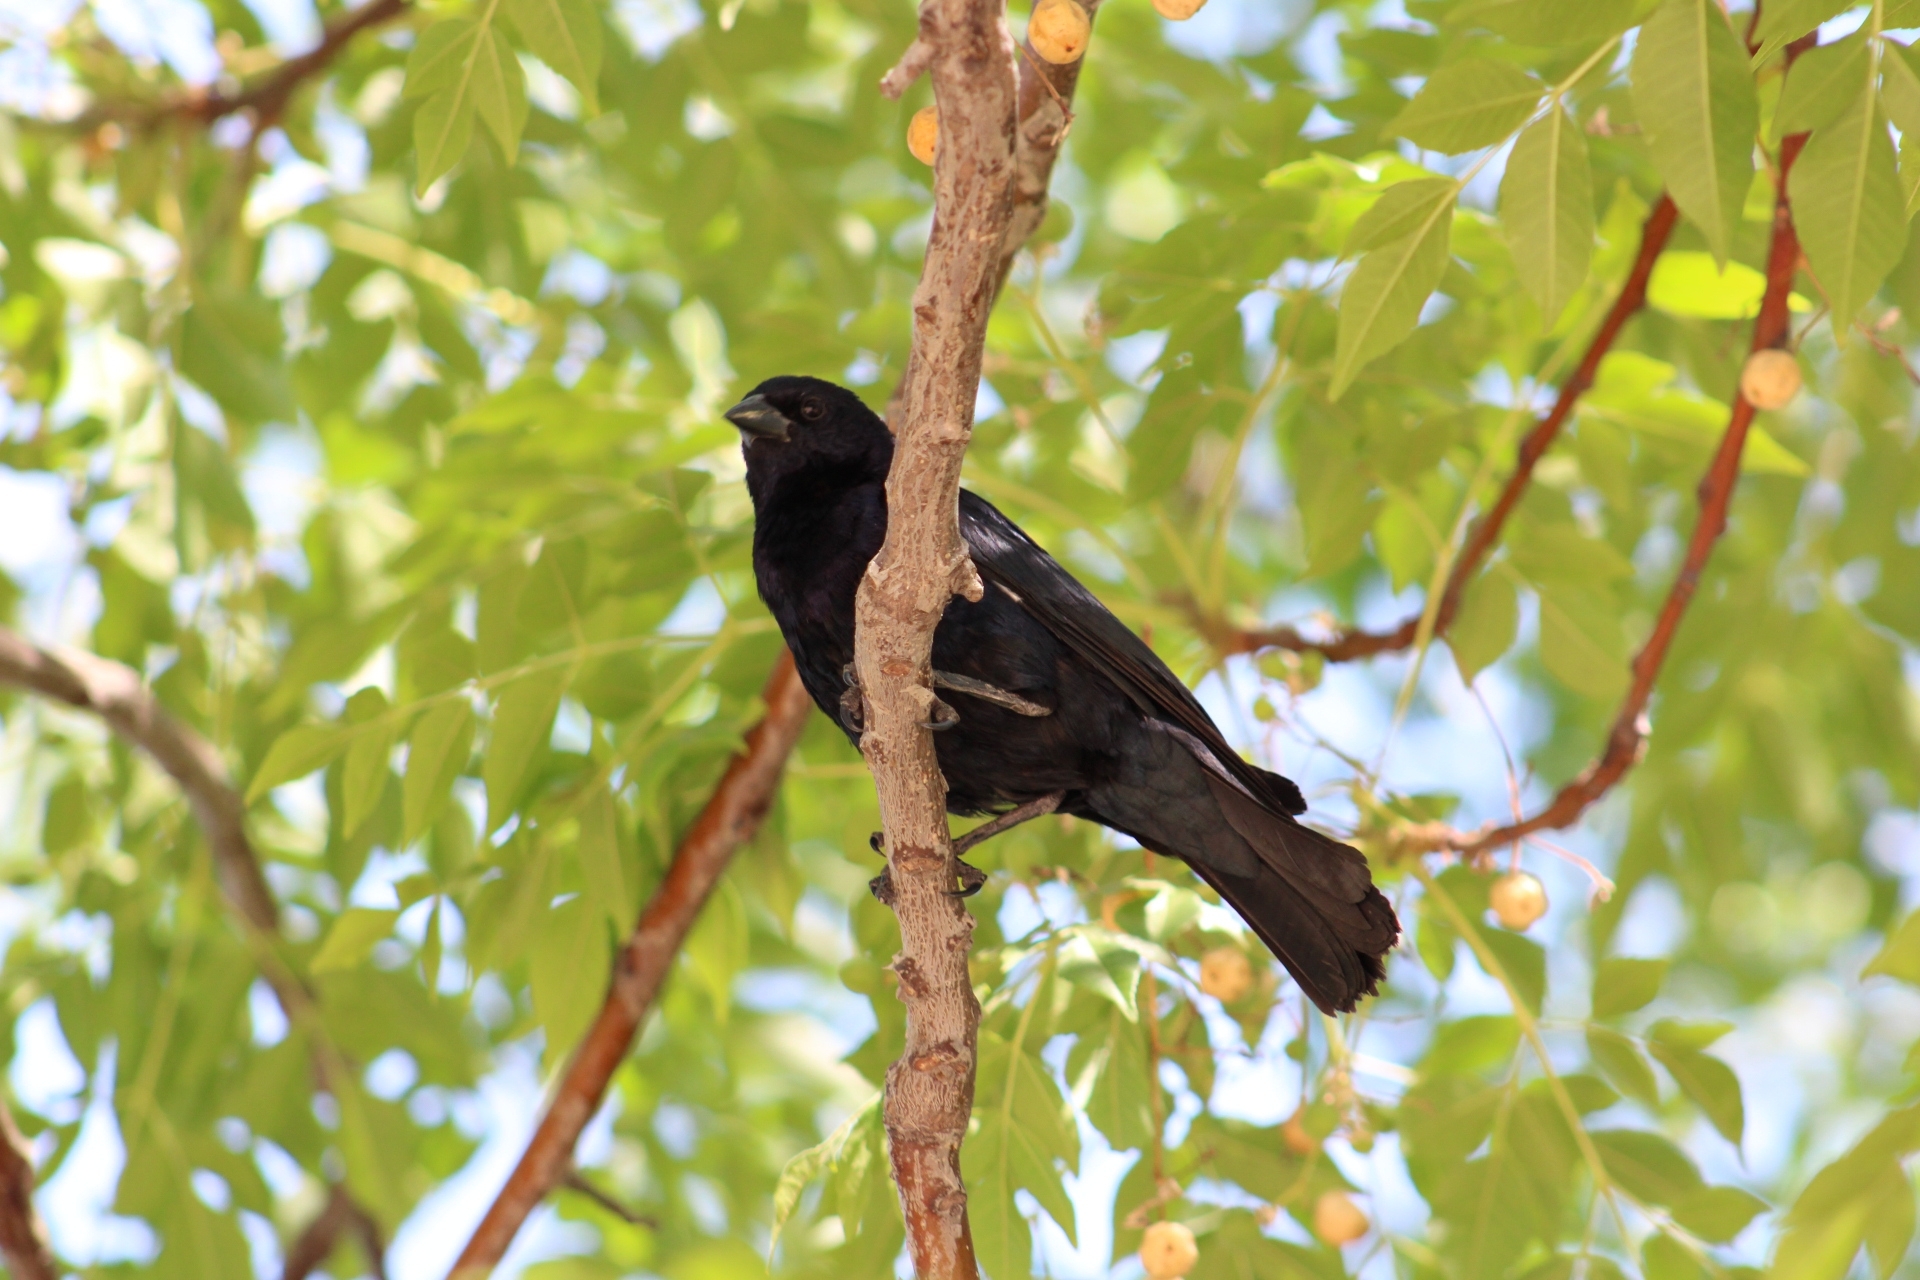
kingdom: Animalia
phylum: Chordata
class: Aves
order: Passeriformes
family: Icteridae
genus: Molothrus
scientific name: Molothrus bonariensis
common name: Shiny cowbird
